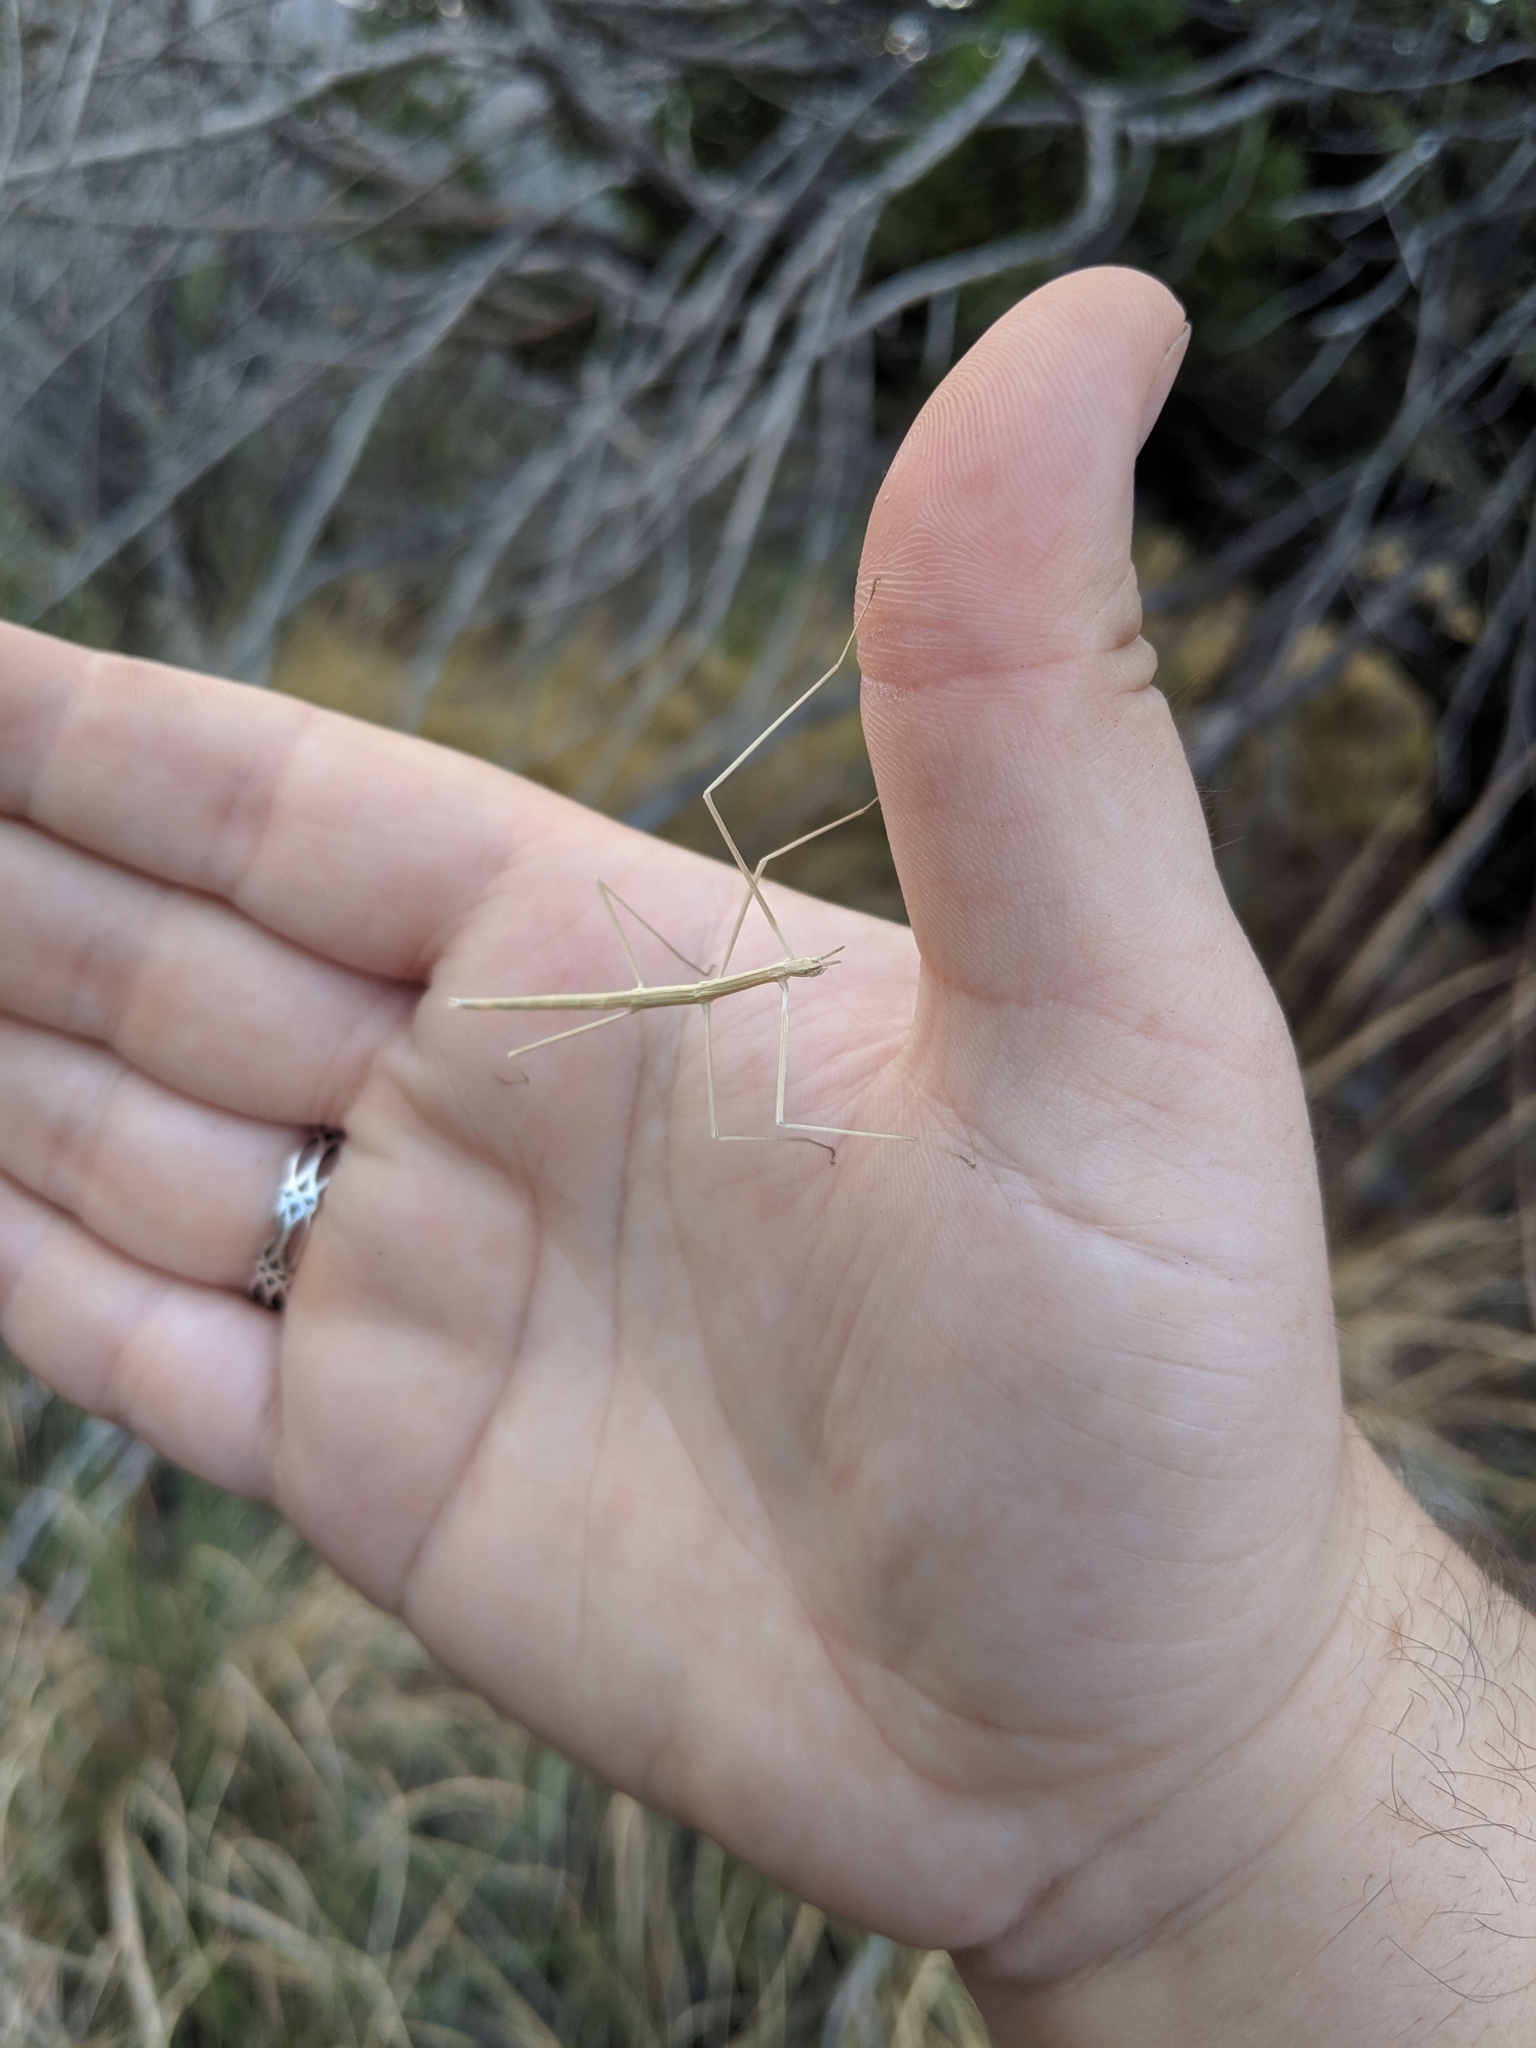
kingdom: Animalia
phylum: Arthropoda
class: Insecta
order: Phasmida
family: Heteronemiidae
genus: Parabacillus
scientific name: Parabacillus hesperus
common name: Western short-horned walkingstick
